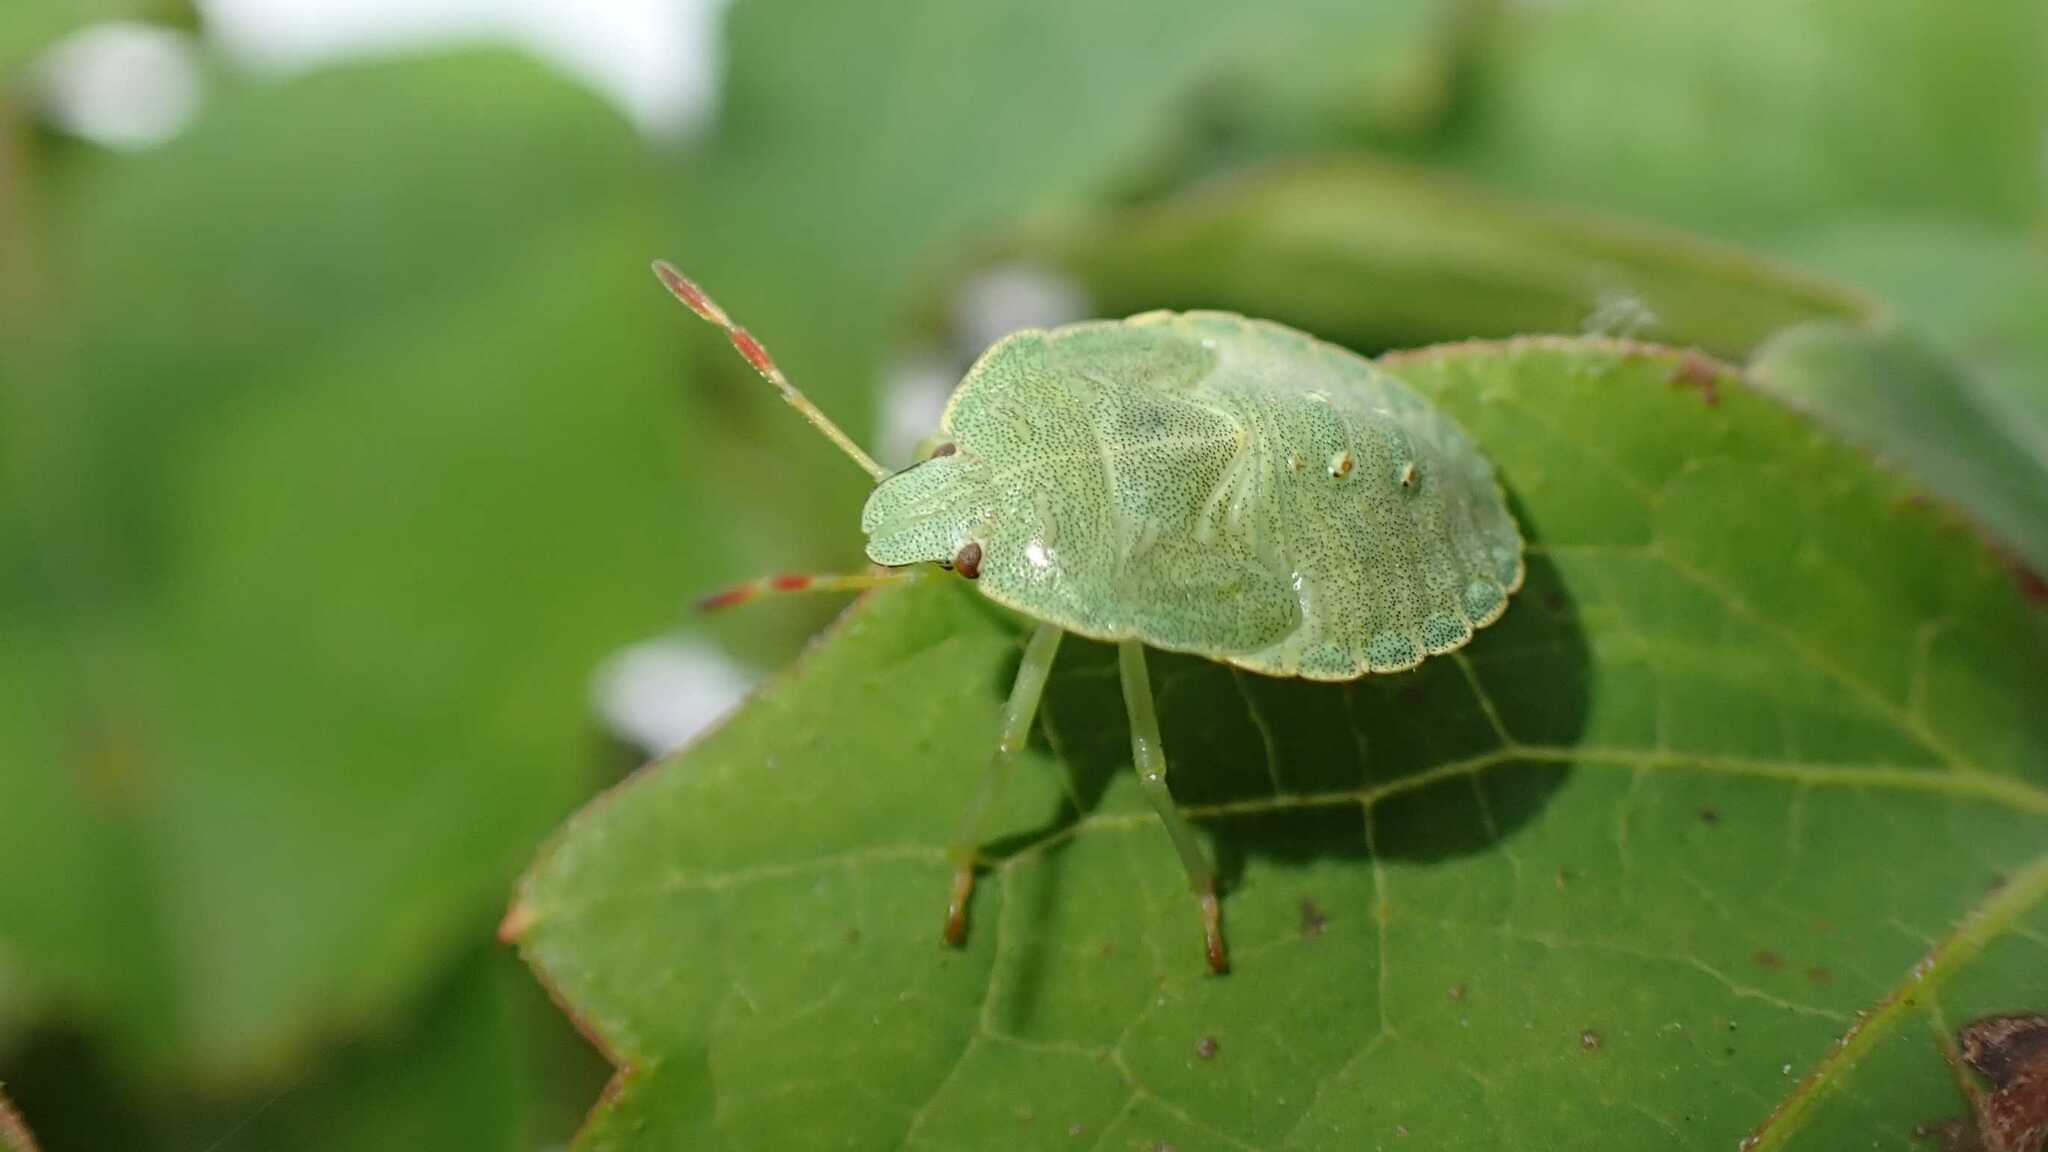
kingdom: Animalia
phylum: Arthropoda
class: Insecta
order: Hemiptera
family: Pentatomidae
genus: Palomena
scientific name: Palomena prasina
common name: Green shieldbug
